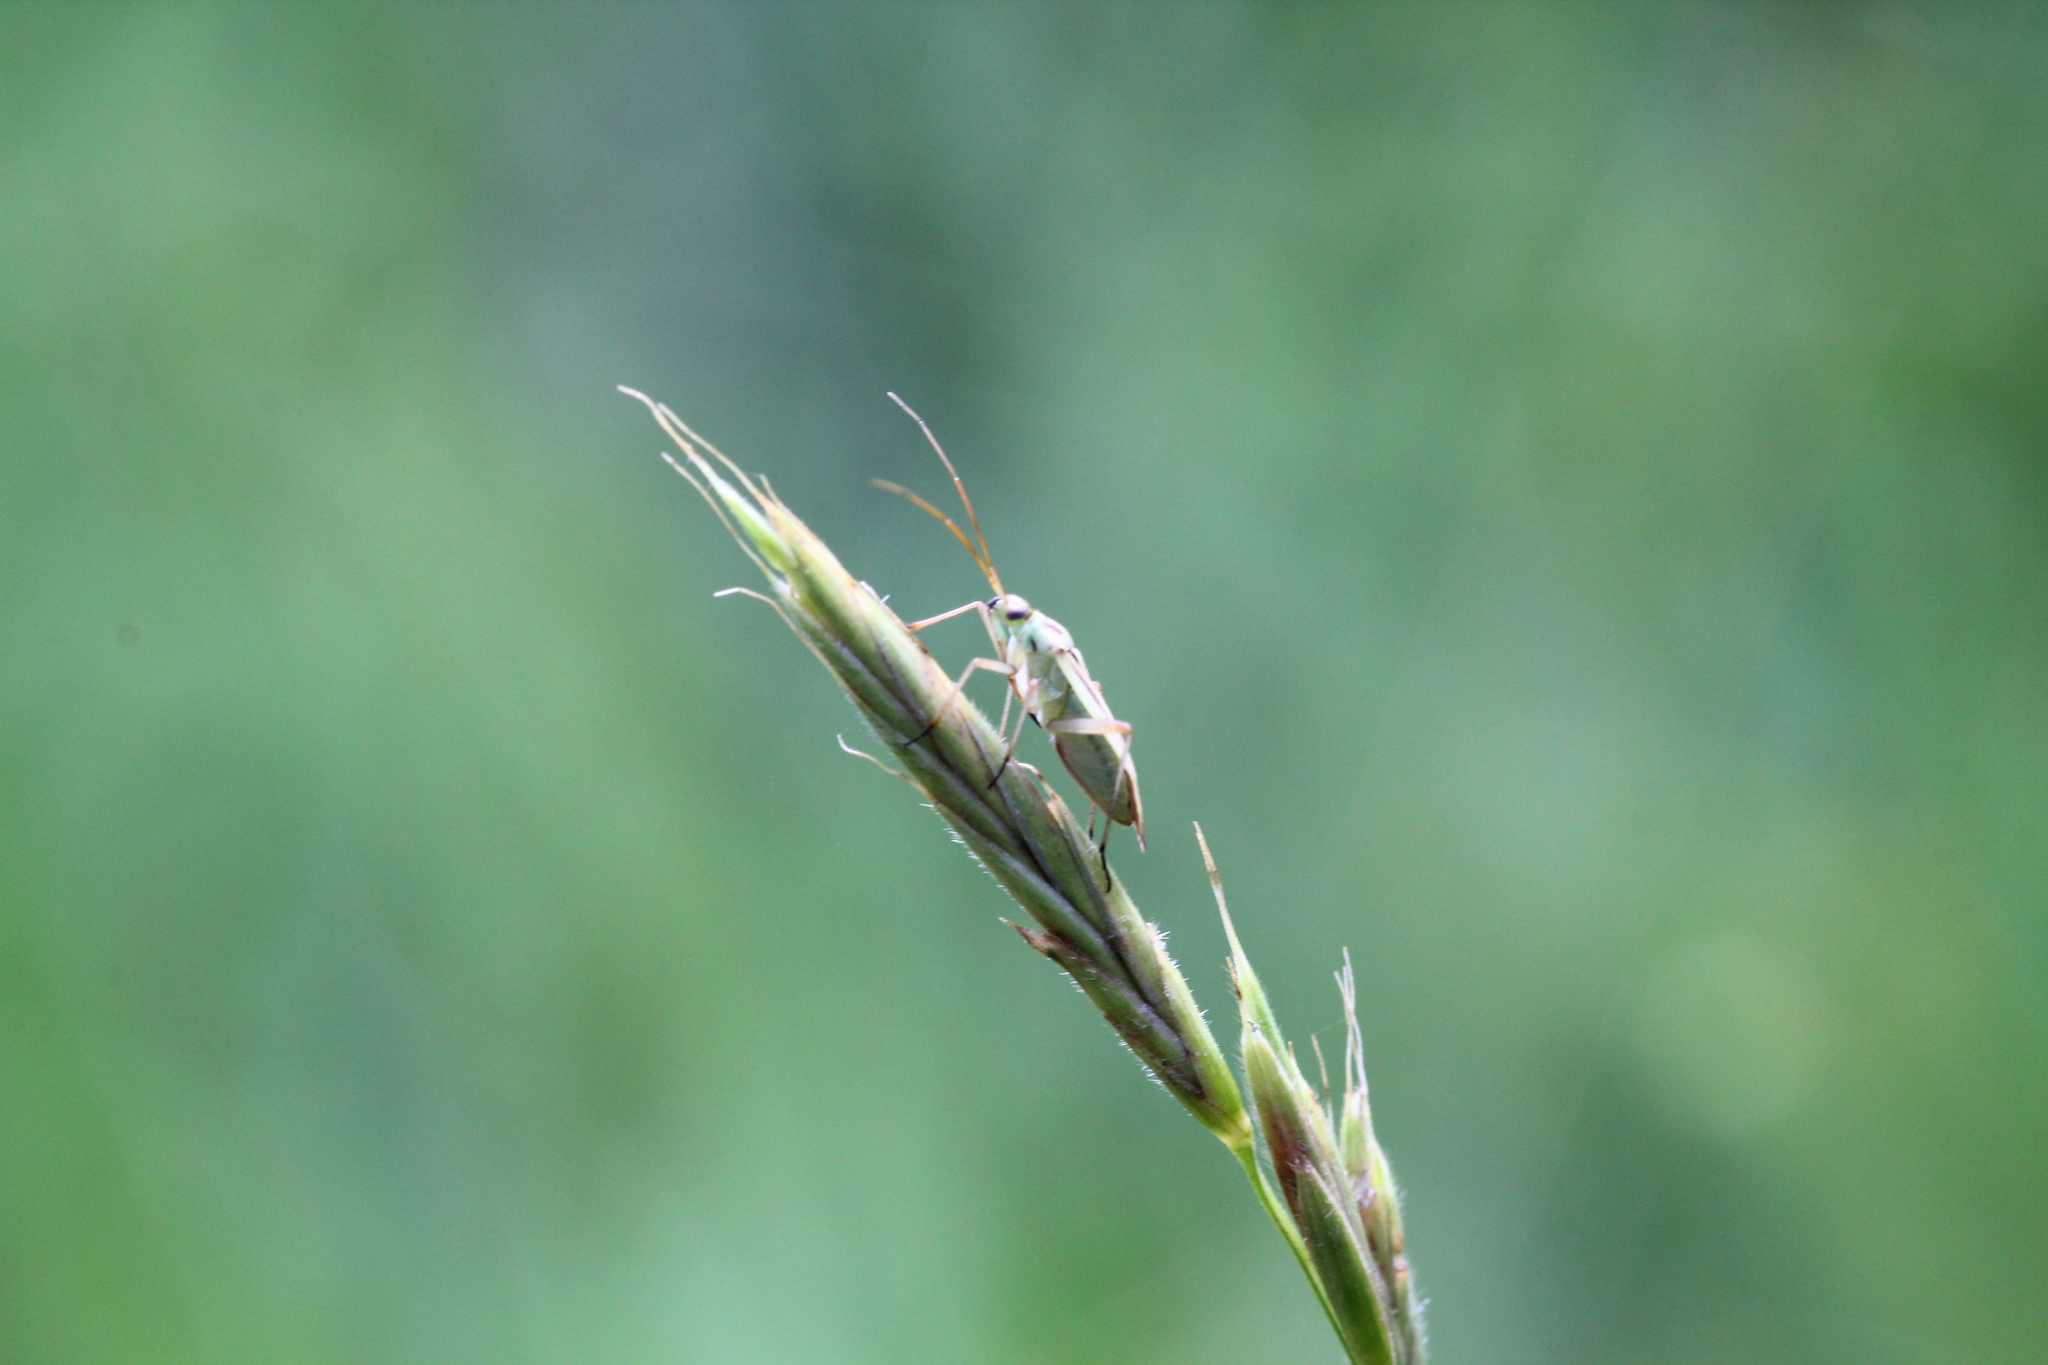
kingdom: Animalia
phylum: Arthropoda
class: Insecta
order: Hemiptera
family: Miridae
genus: Stenotus
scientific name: Stenotus binotatus
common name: Plant bug
